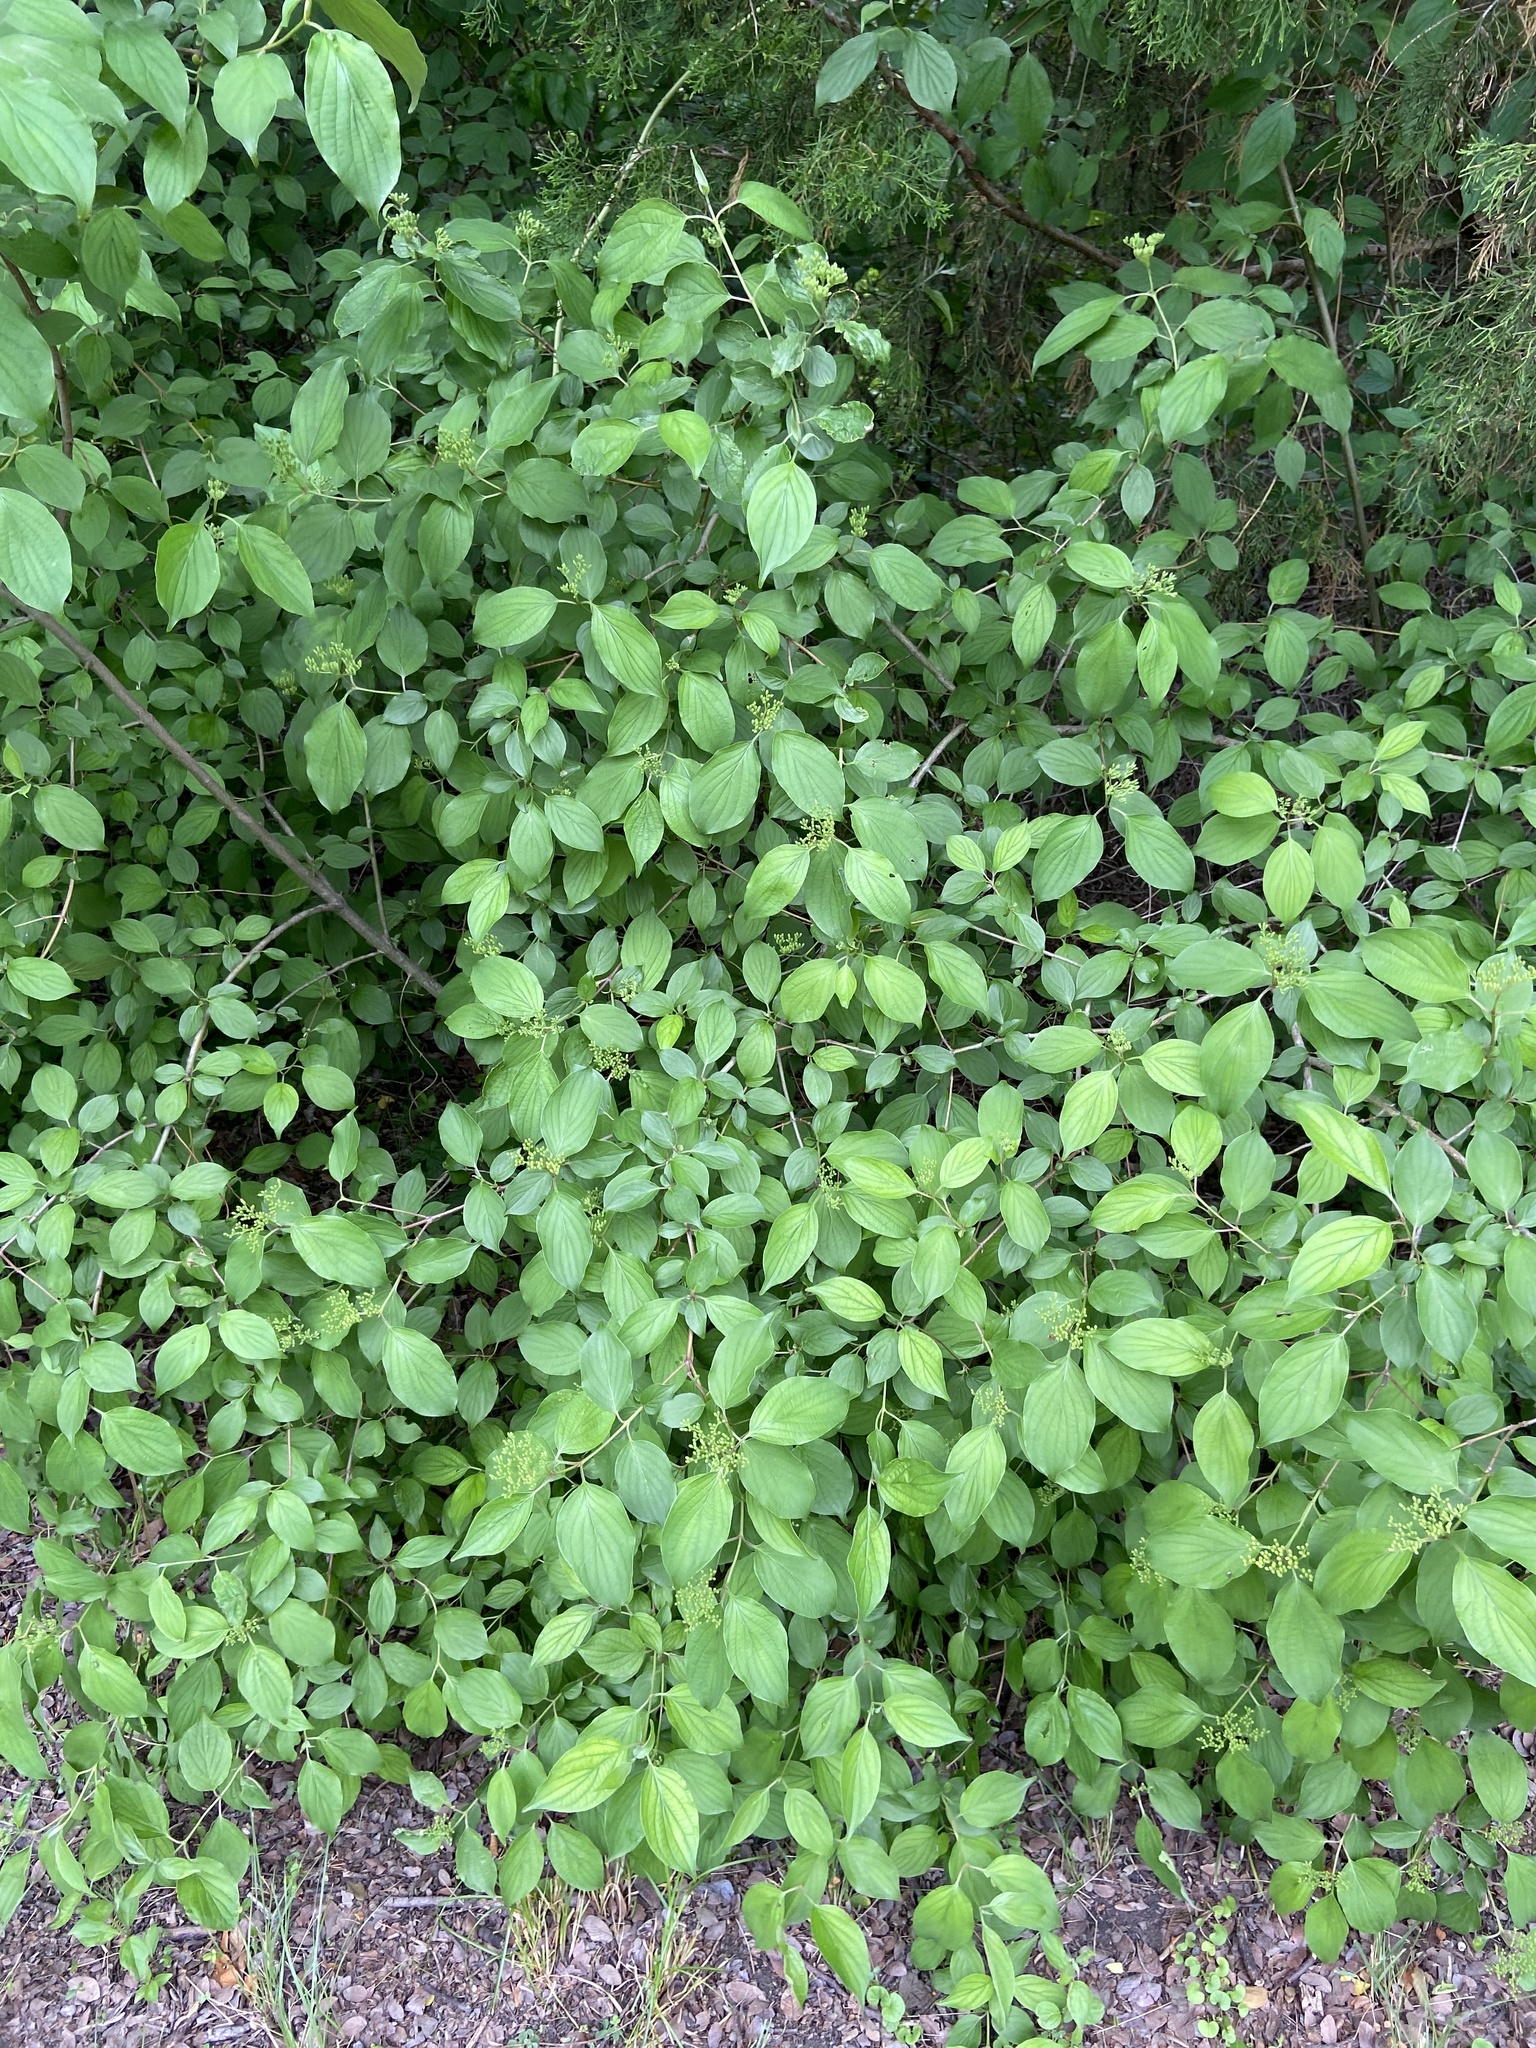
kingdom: Plantae
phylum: Tracheophyta
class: Magnoliopsida
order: Cornales
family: Cornaceae
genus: Cornus
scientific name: Cornus drummondii
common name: Rough-leaf dogwood
